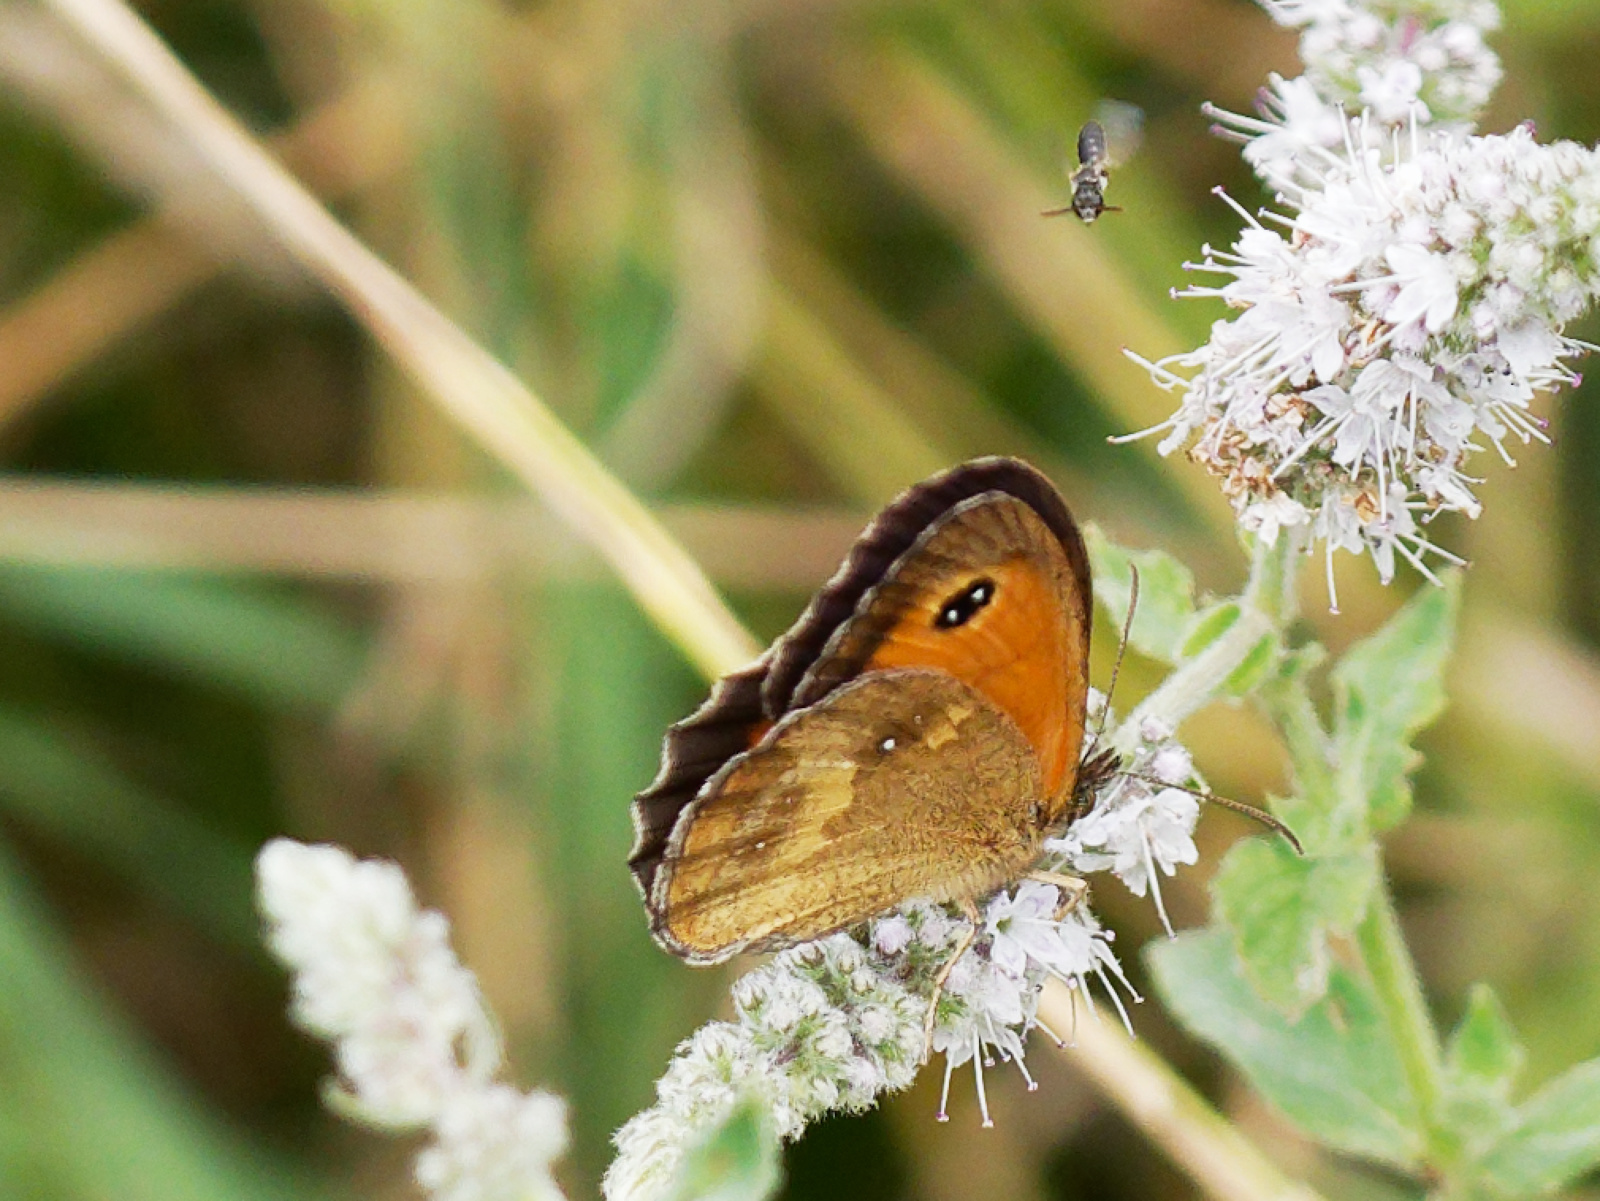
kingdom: Animalia
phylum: Arthropoda
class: Insecta
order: Lepidoptera
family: Nymphalidae
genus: Pyronia
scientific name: Pyronia tithonus
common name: Gatekeeper
